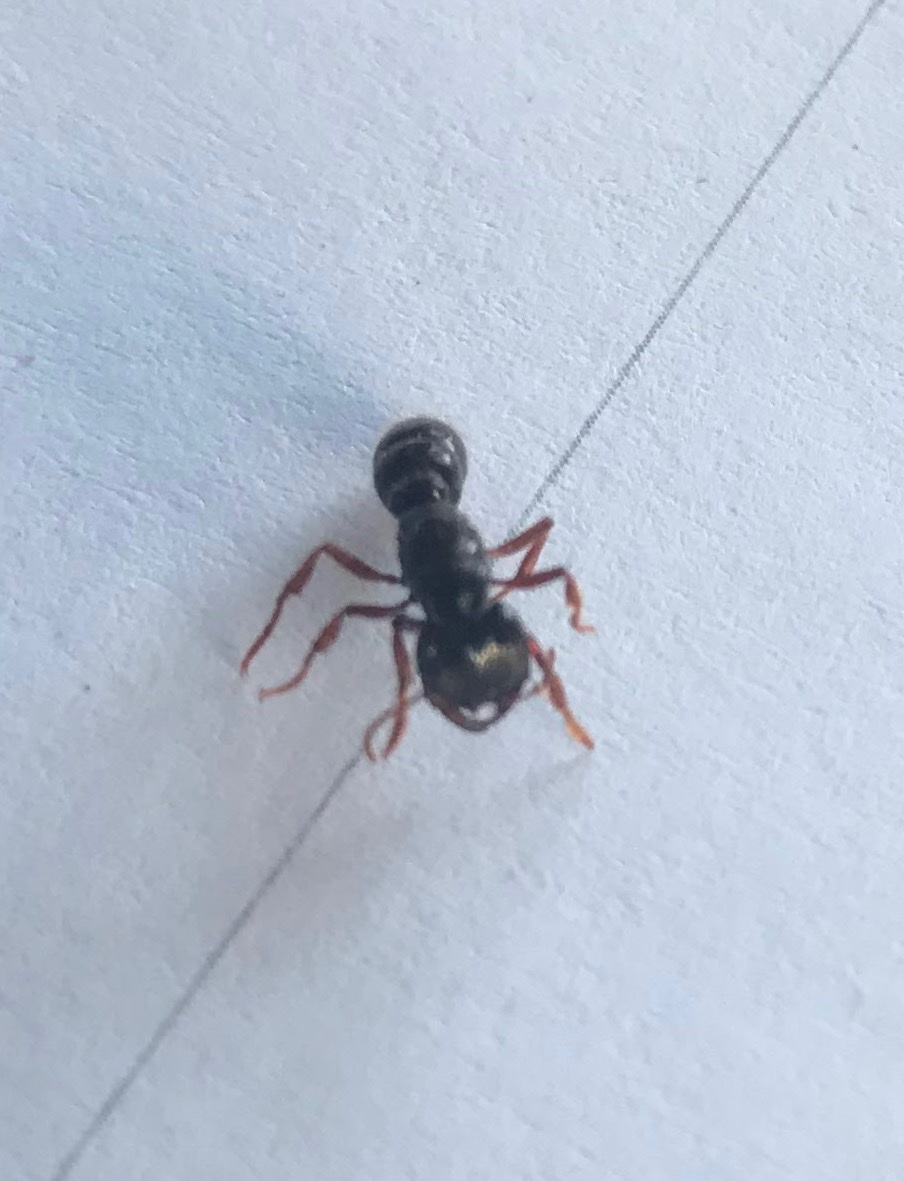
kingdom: Animalia
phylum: Arthropoda
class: Insecta
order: Hymenoptera
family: Formicidae
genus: Amblyopone
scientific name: Amblyopone australis
